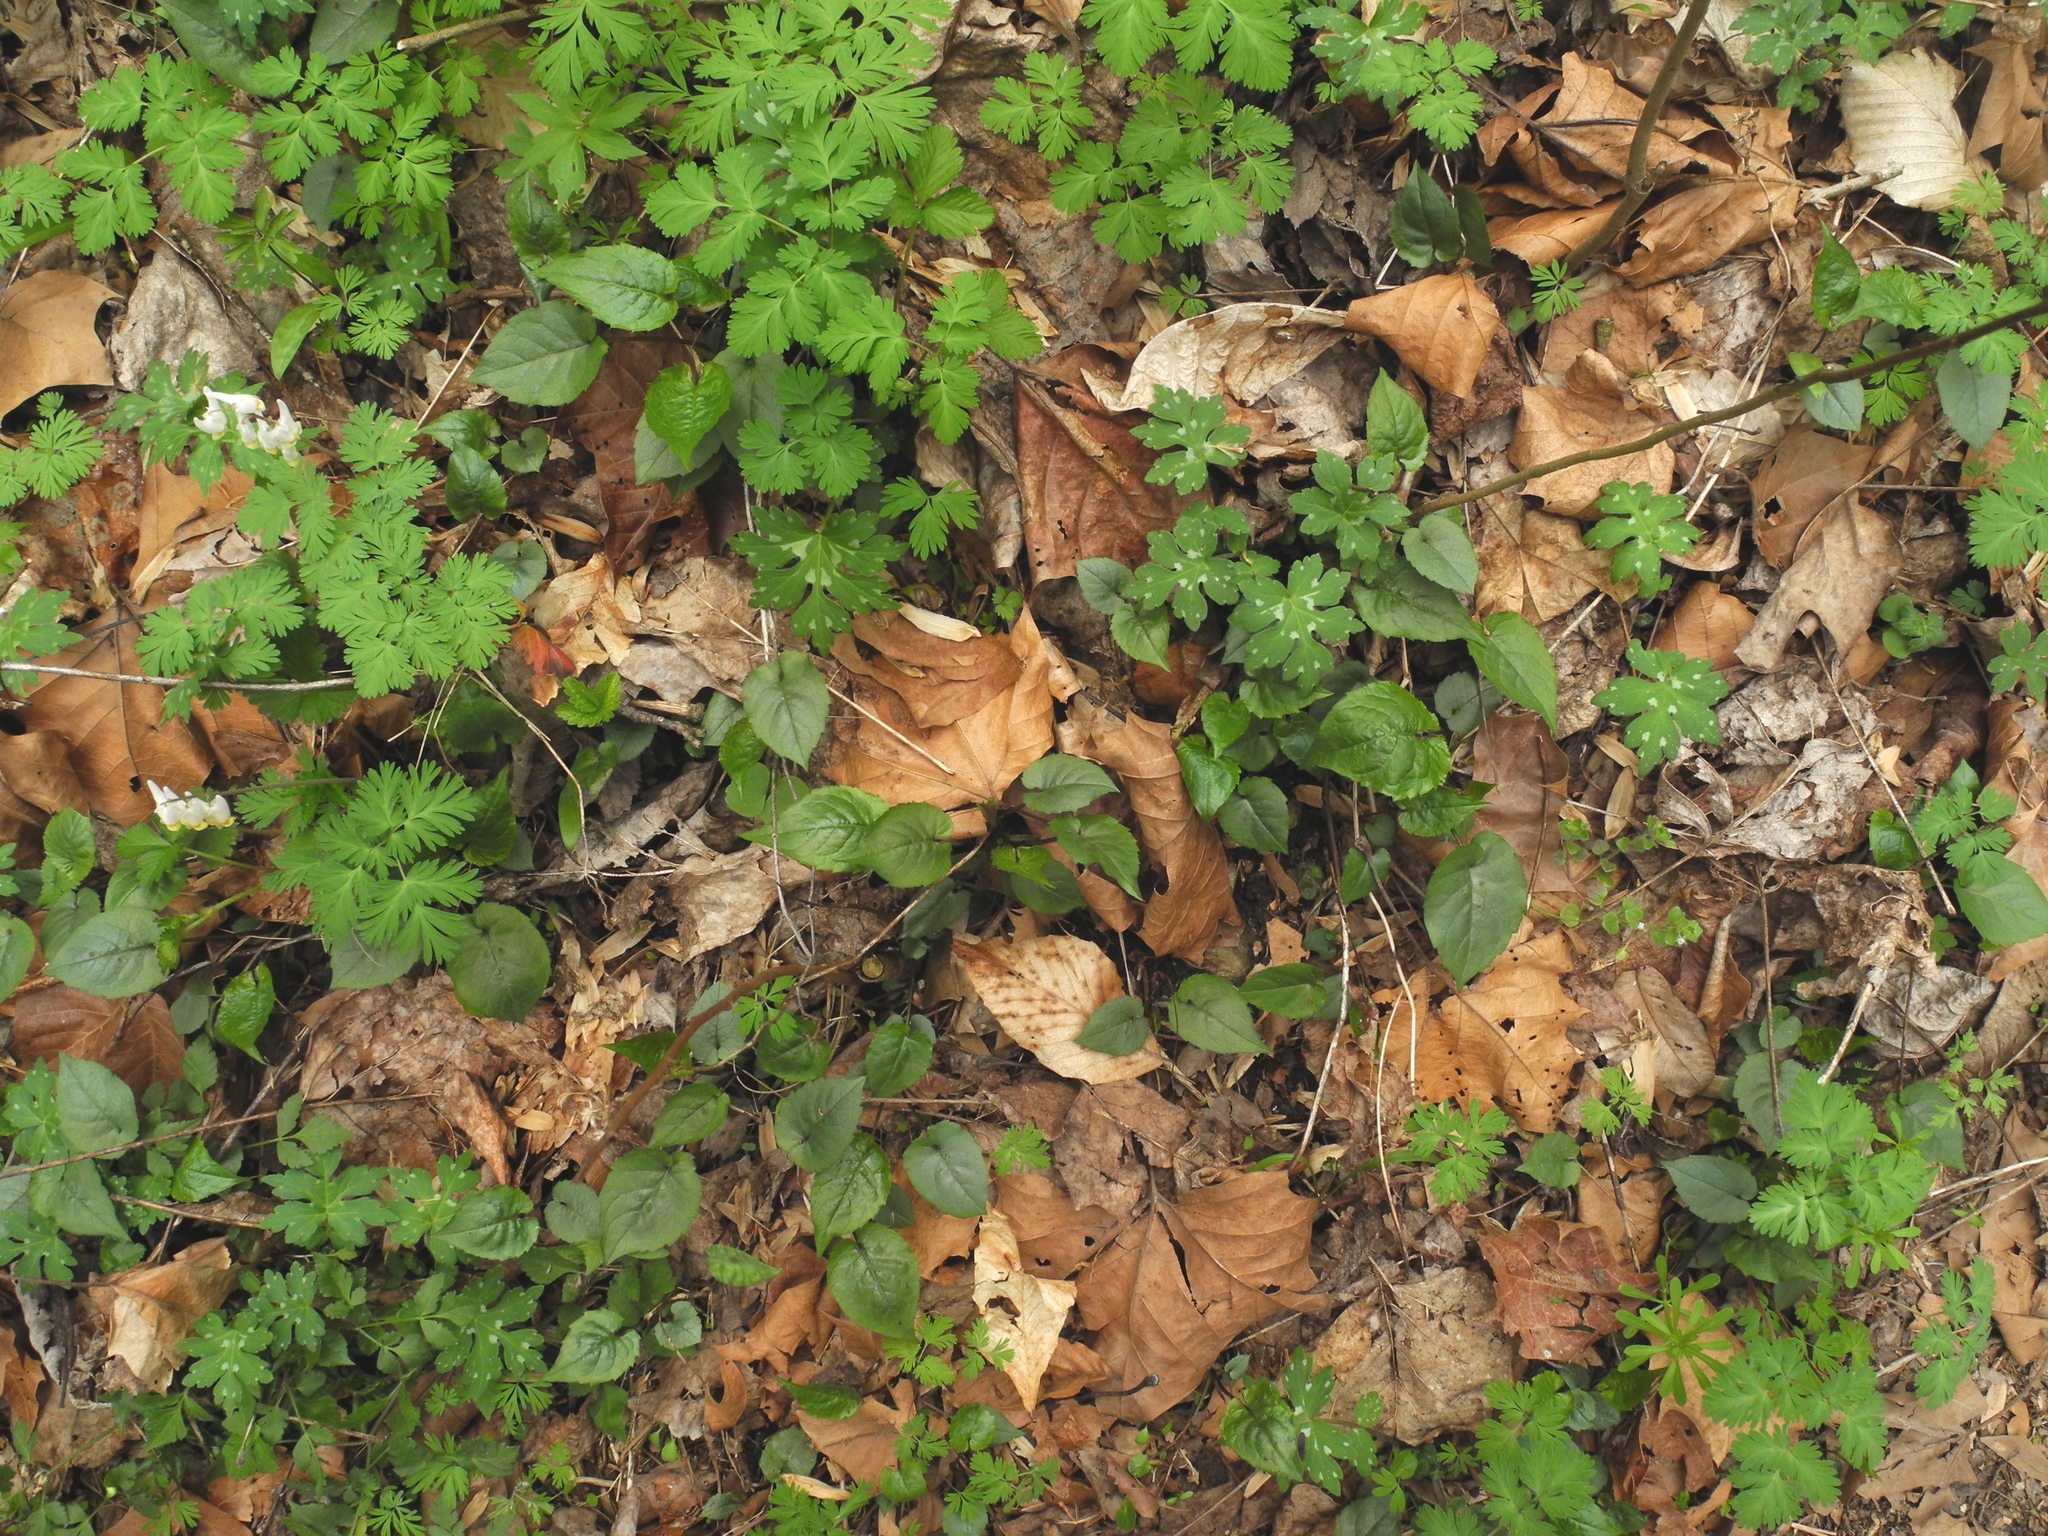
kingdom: Plantae
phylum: Tracheophyta
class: Magnoliopsida
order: Boraginales
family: Hydrophyllaceae
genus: Hydrophyllum
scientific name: Hydrophyllum canadense
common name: Canada waterleaf
